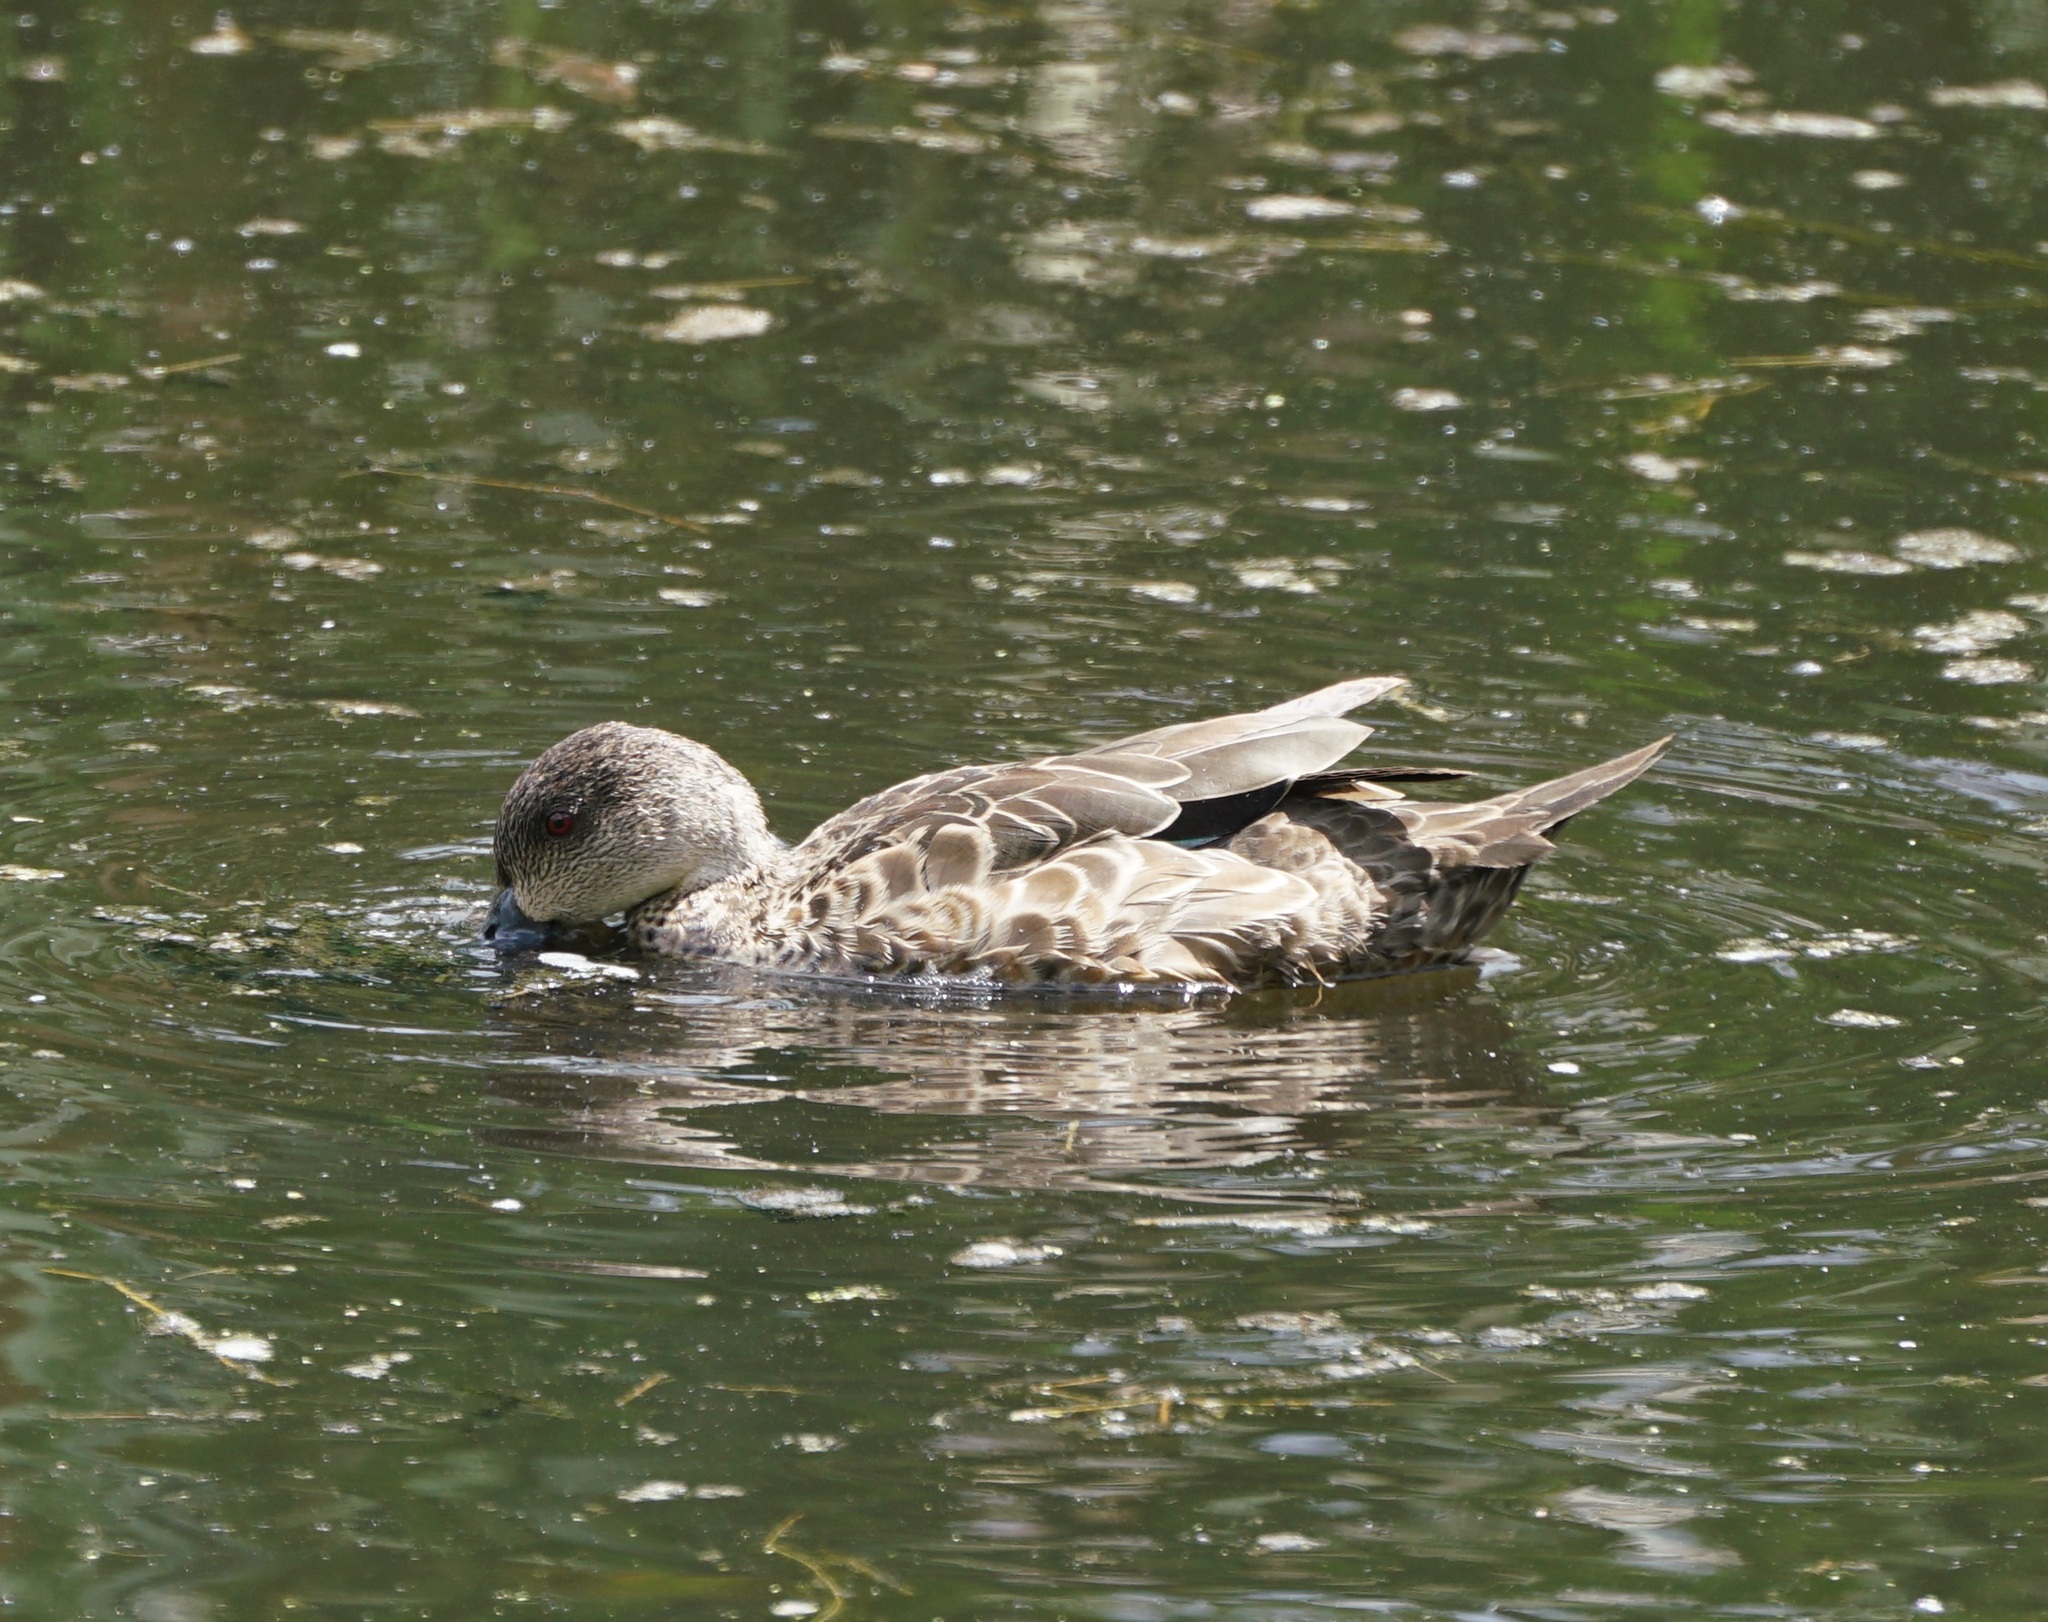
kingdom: Animalia
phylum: Chordata
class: Aves
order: Anseriformes
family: Anatidae
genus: Anas
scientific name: Anas gracilis
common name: Grey teal
